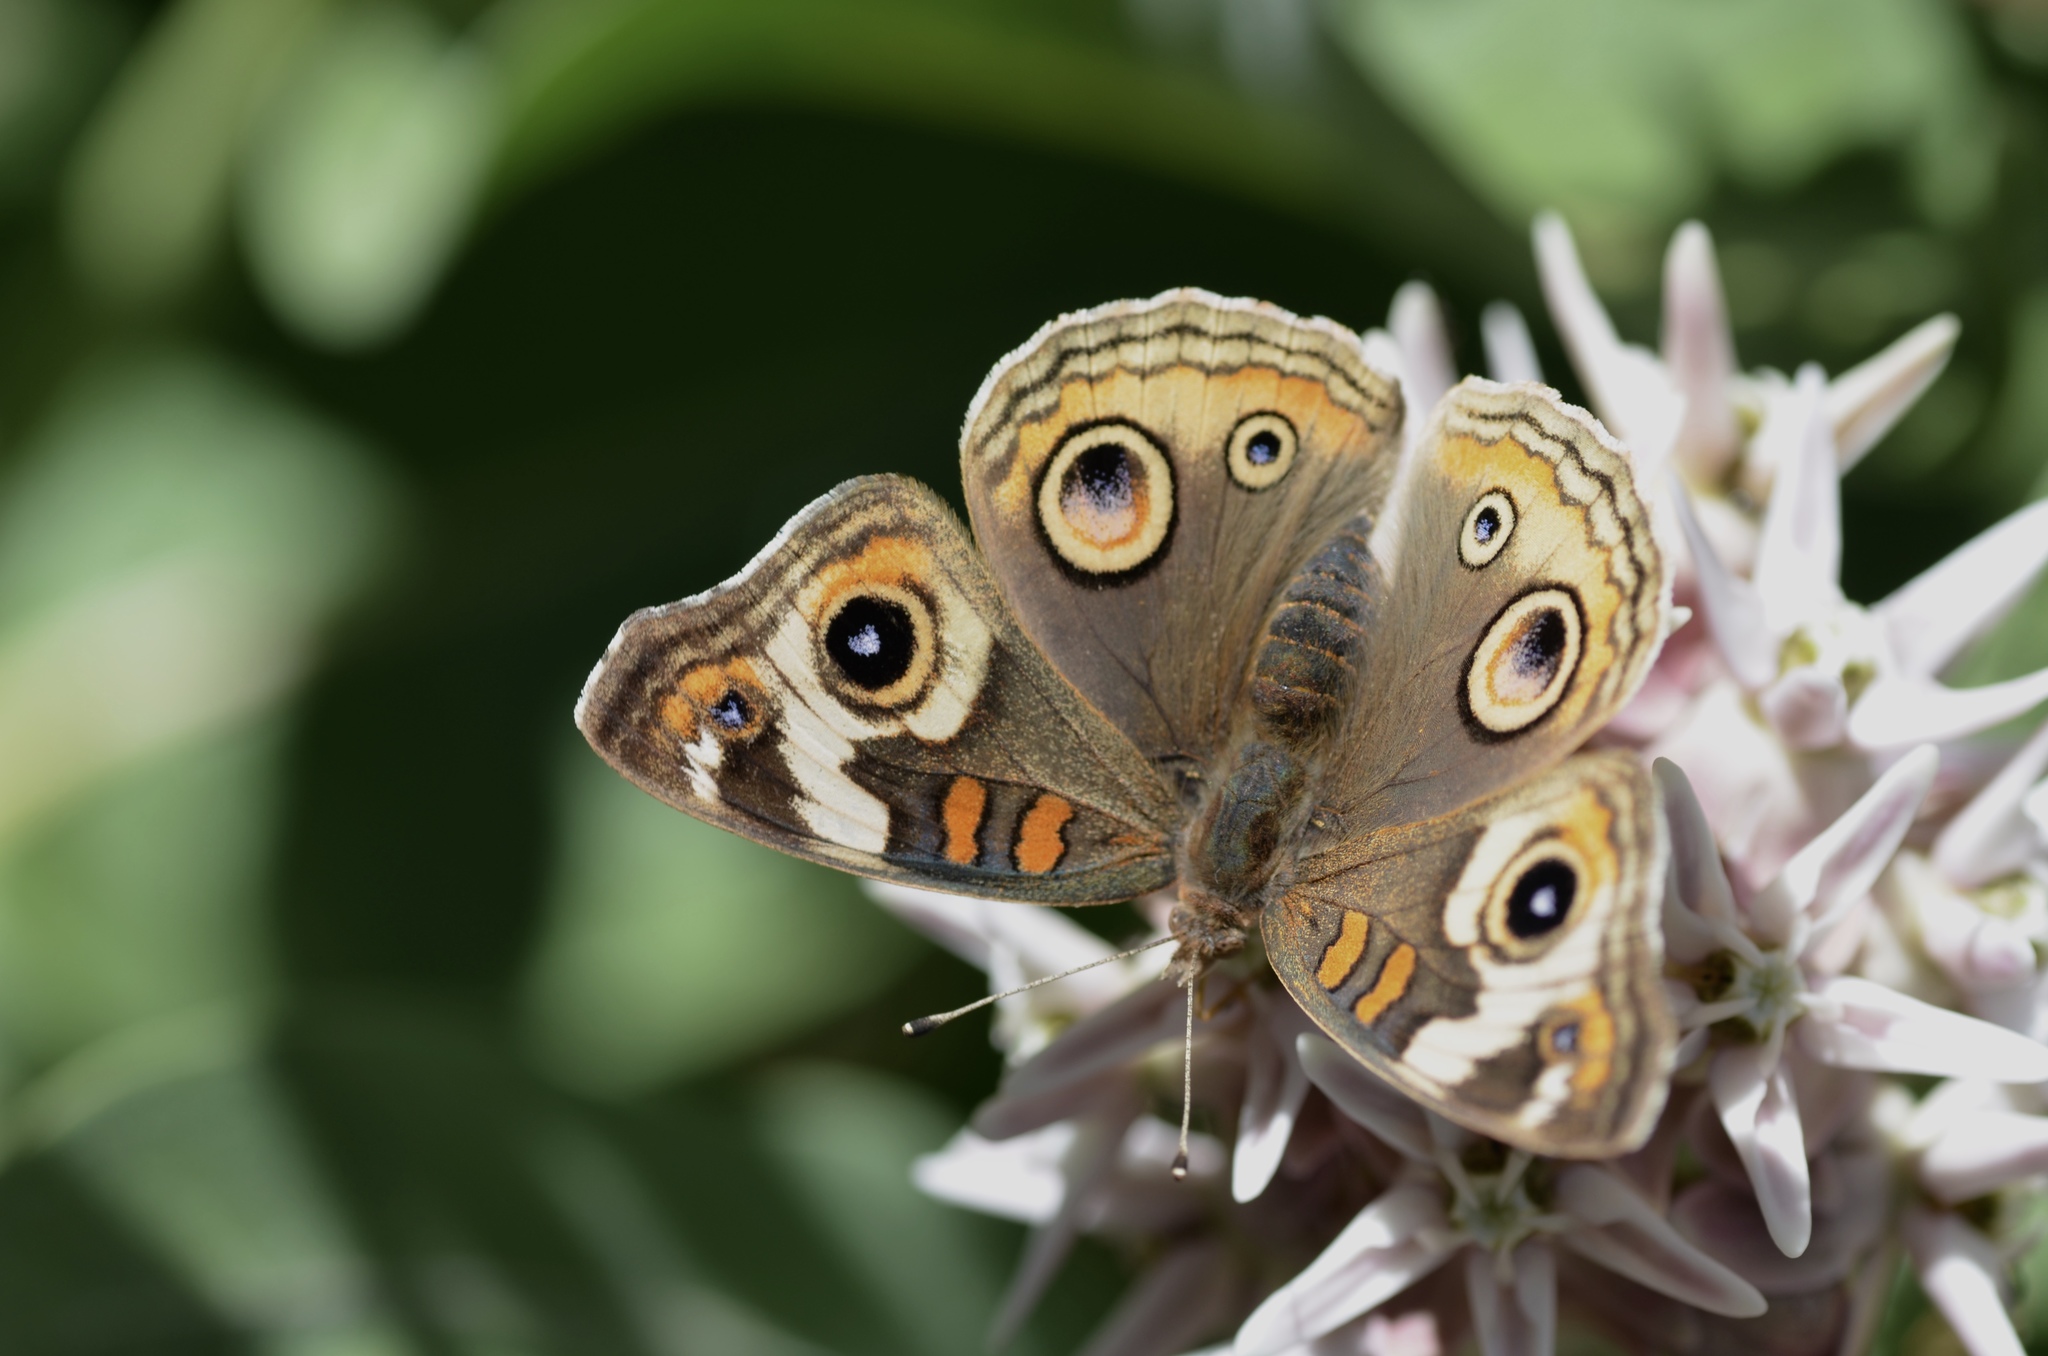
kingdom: Animalia
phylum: Arthropoda
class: Insecta
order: Lepidoptera
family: Nymphalidae
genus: Junonia
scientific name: Junonia grisea
